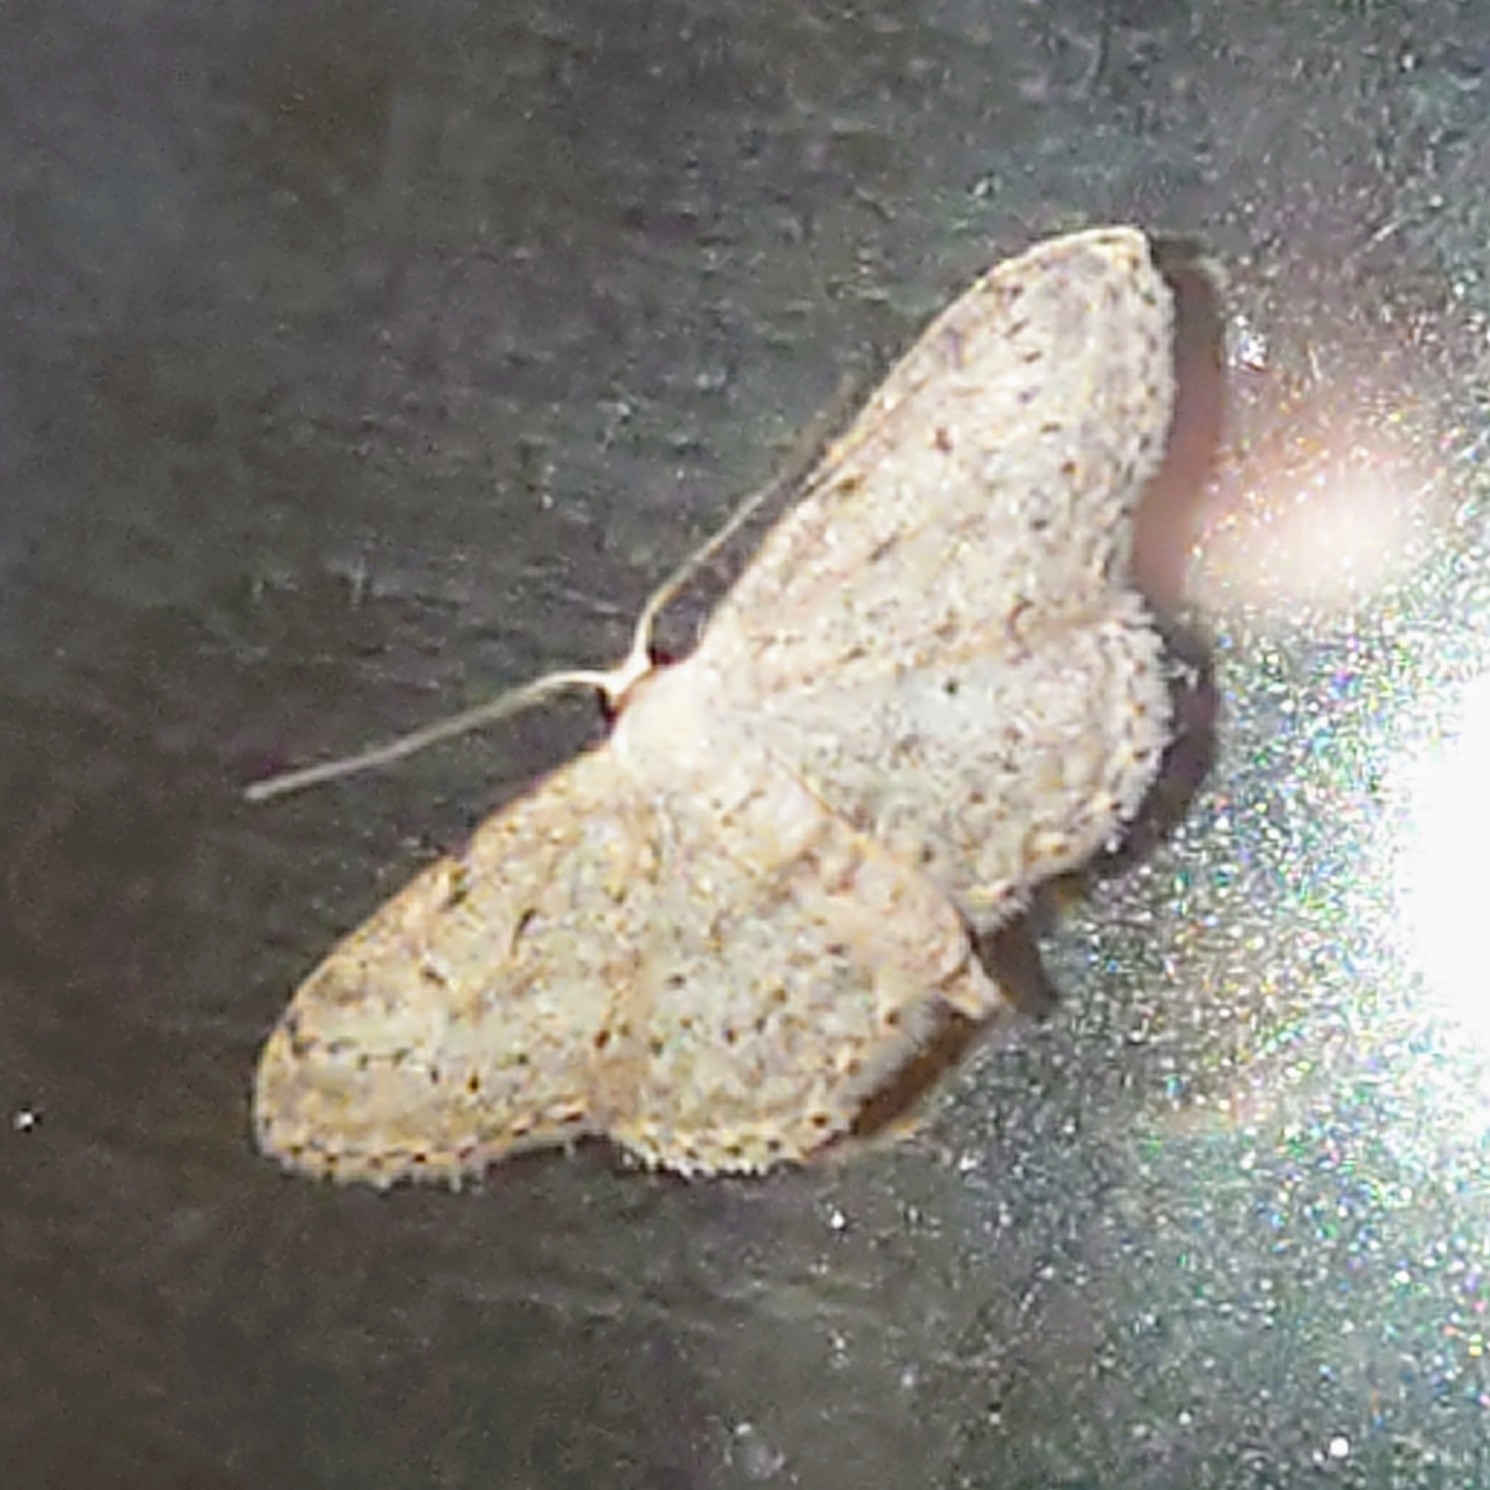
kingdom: Animalia
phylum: Arthropoda
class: Insecta
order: Lepidoptera
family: Geometridae
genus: Idaea
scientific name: Idaea seriata
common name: Small dusty wave
